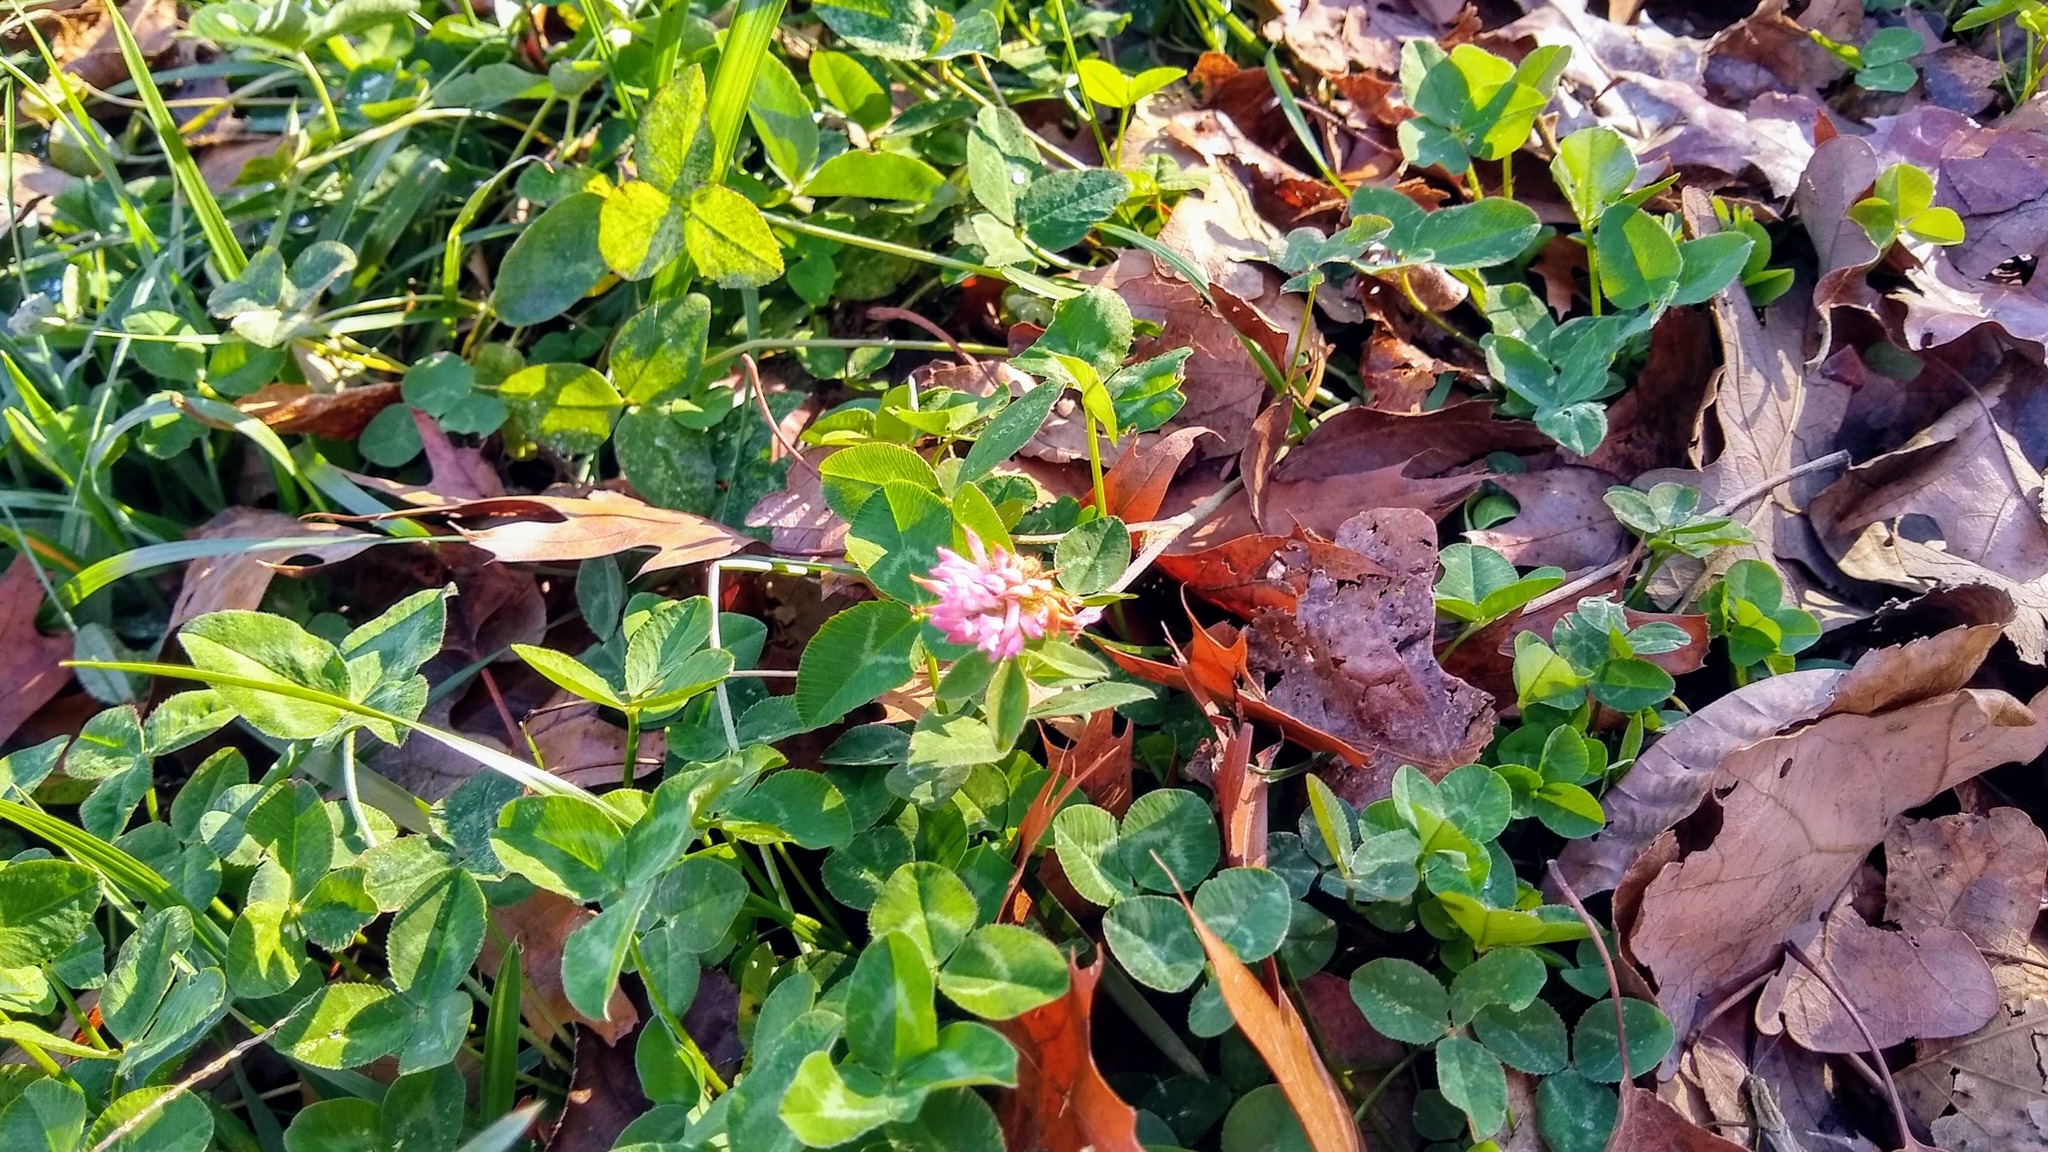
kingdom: Plantae
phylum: Tracheophyta
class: Magnoliopsida
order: Fabales
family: Fabaceae
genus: Trifolium
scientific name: Trifolium pratense
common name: Red clover
